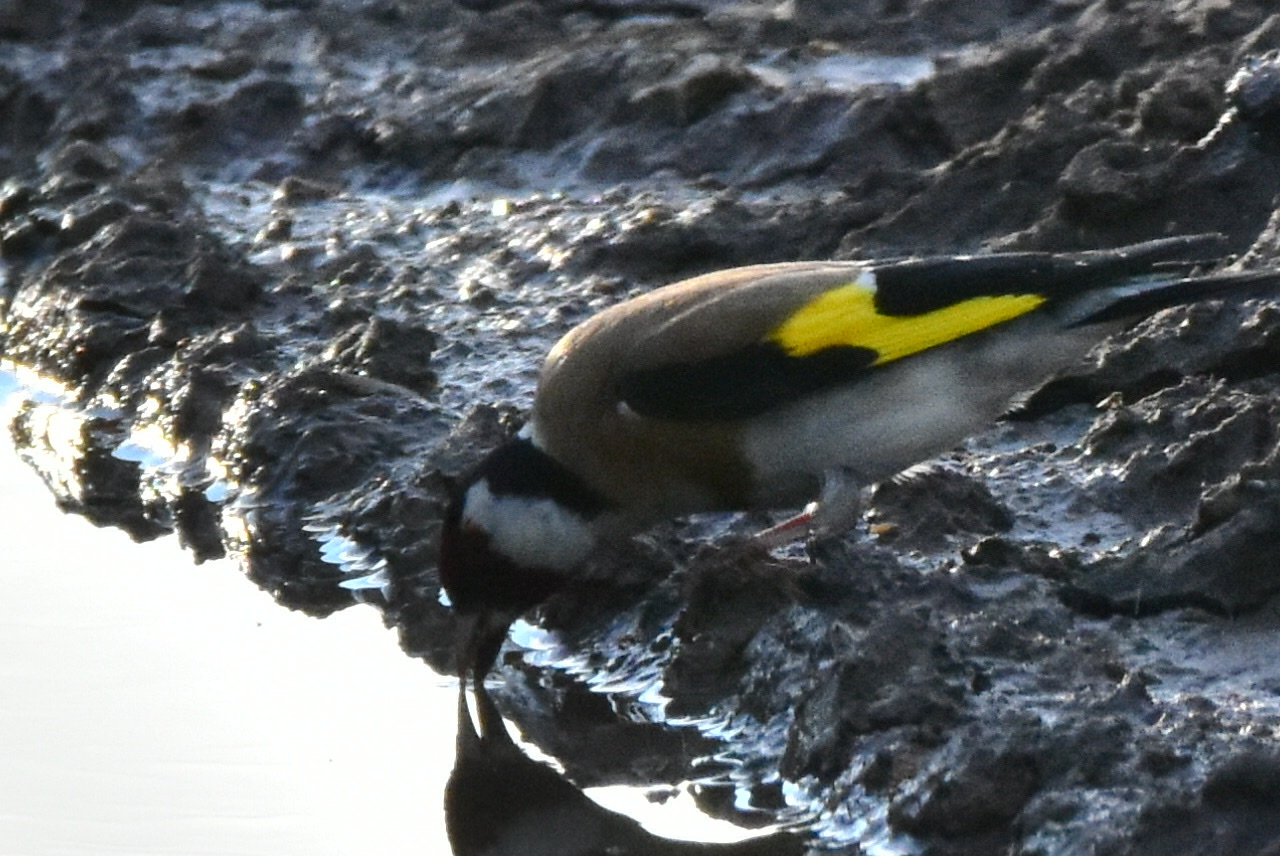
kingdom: Animalia
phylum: Chordata
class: Aves
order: Passeriformes
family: Fringillidae
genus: Carduelis
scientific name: Carduelis carduelis
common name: European goldfinch
